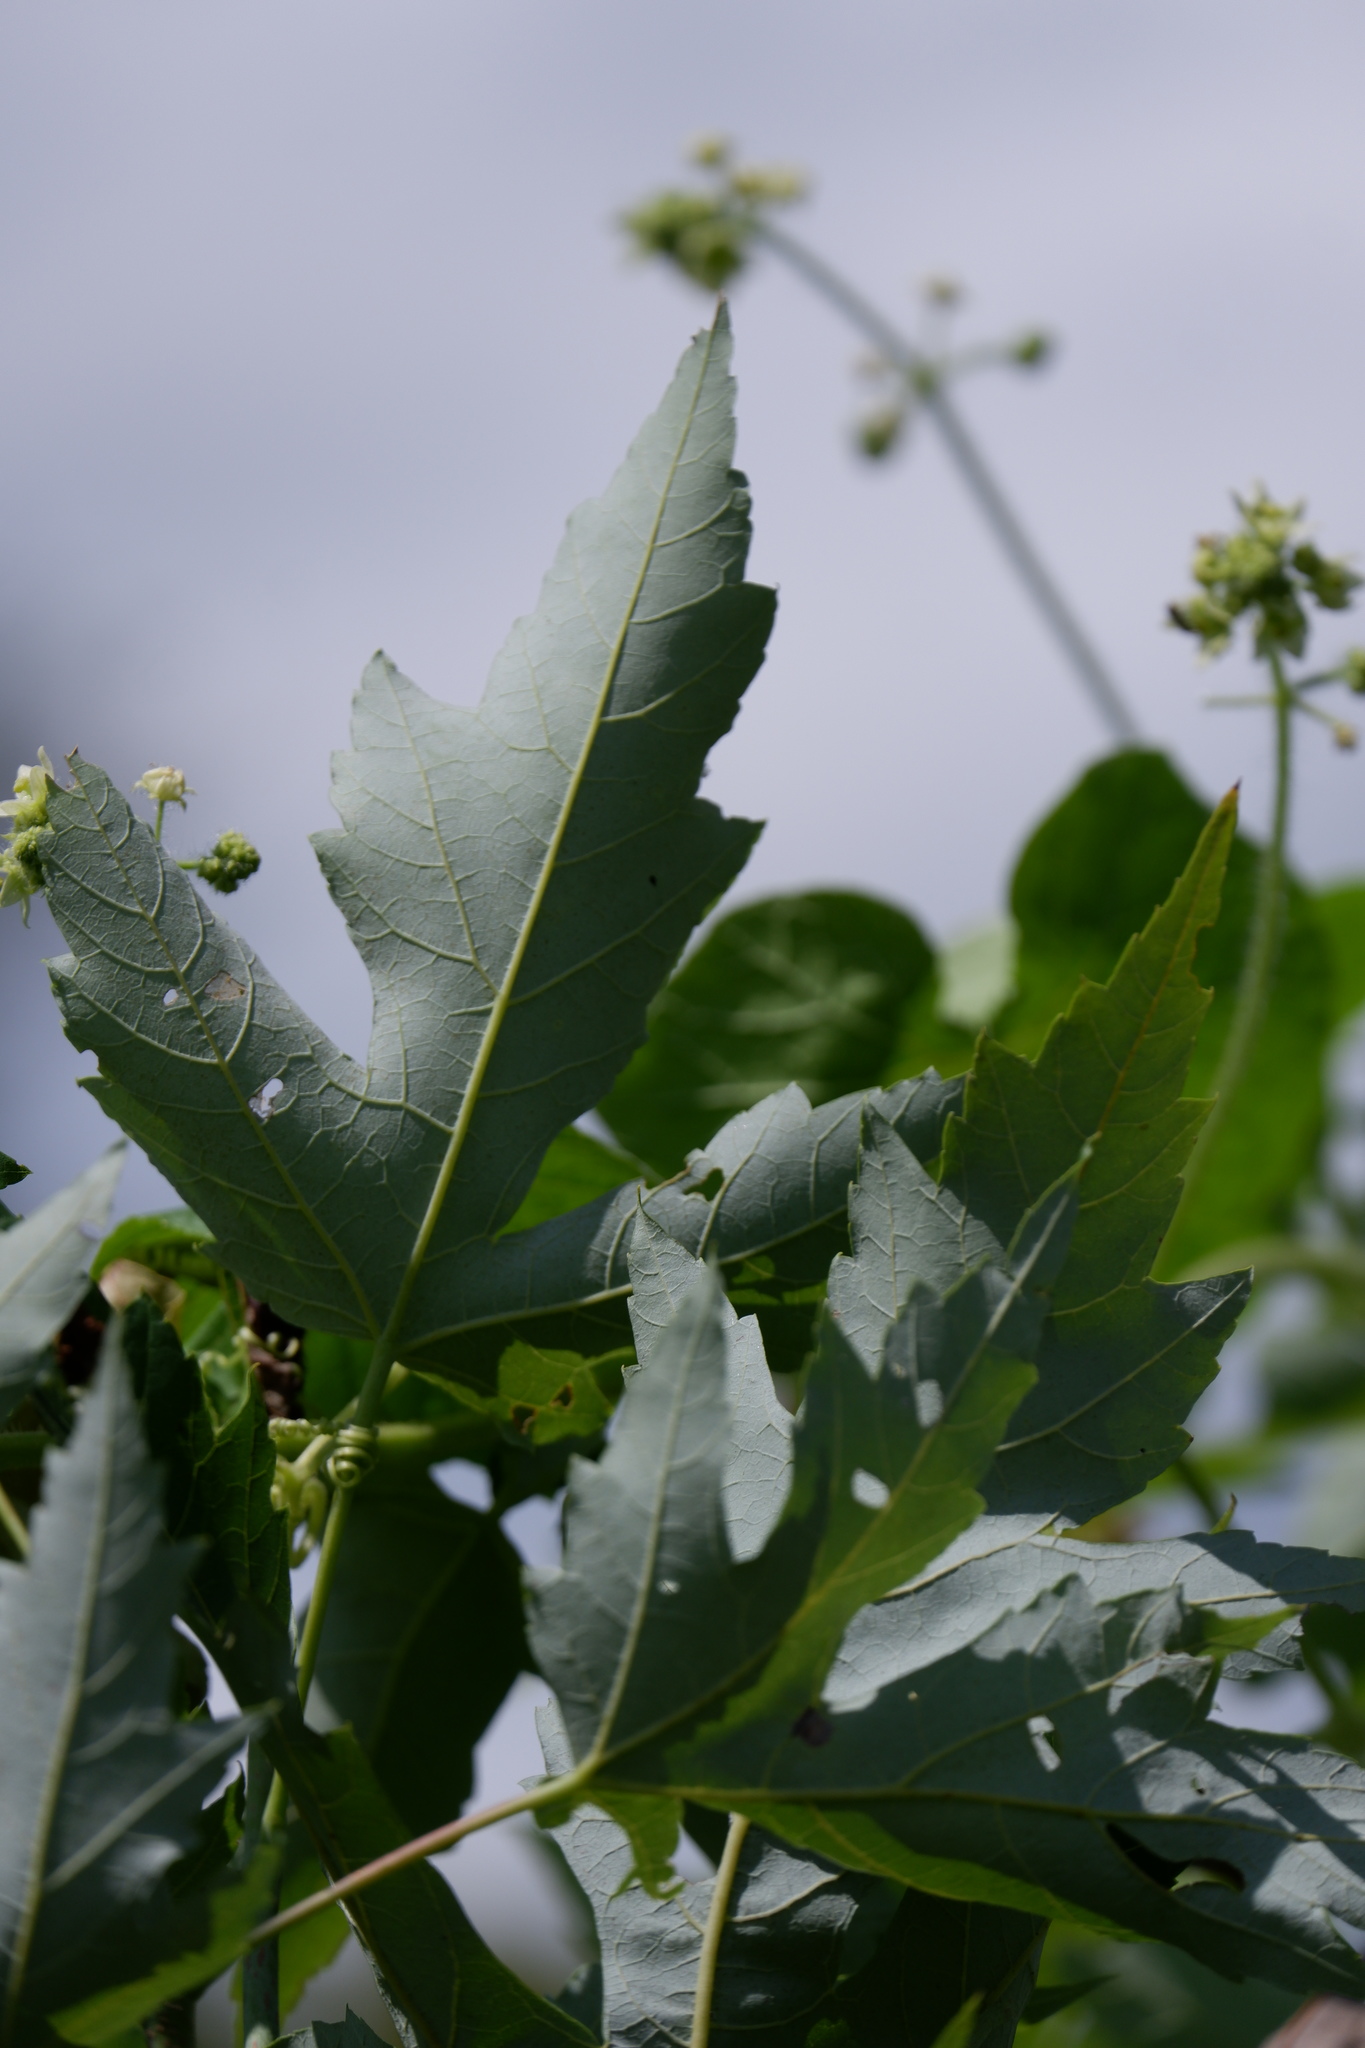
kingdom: Plantae
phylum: Tracheophyta
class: Magnoliopsida
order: Sapindales
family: Sapindaceae
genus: Acer
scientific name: Acer saccharinum
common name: Silver maple
